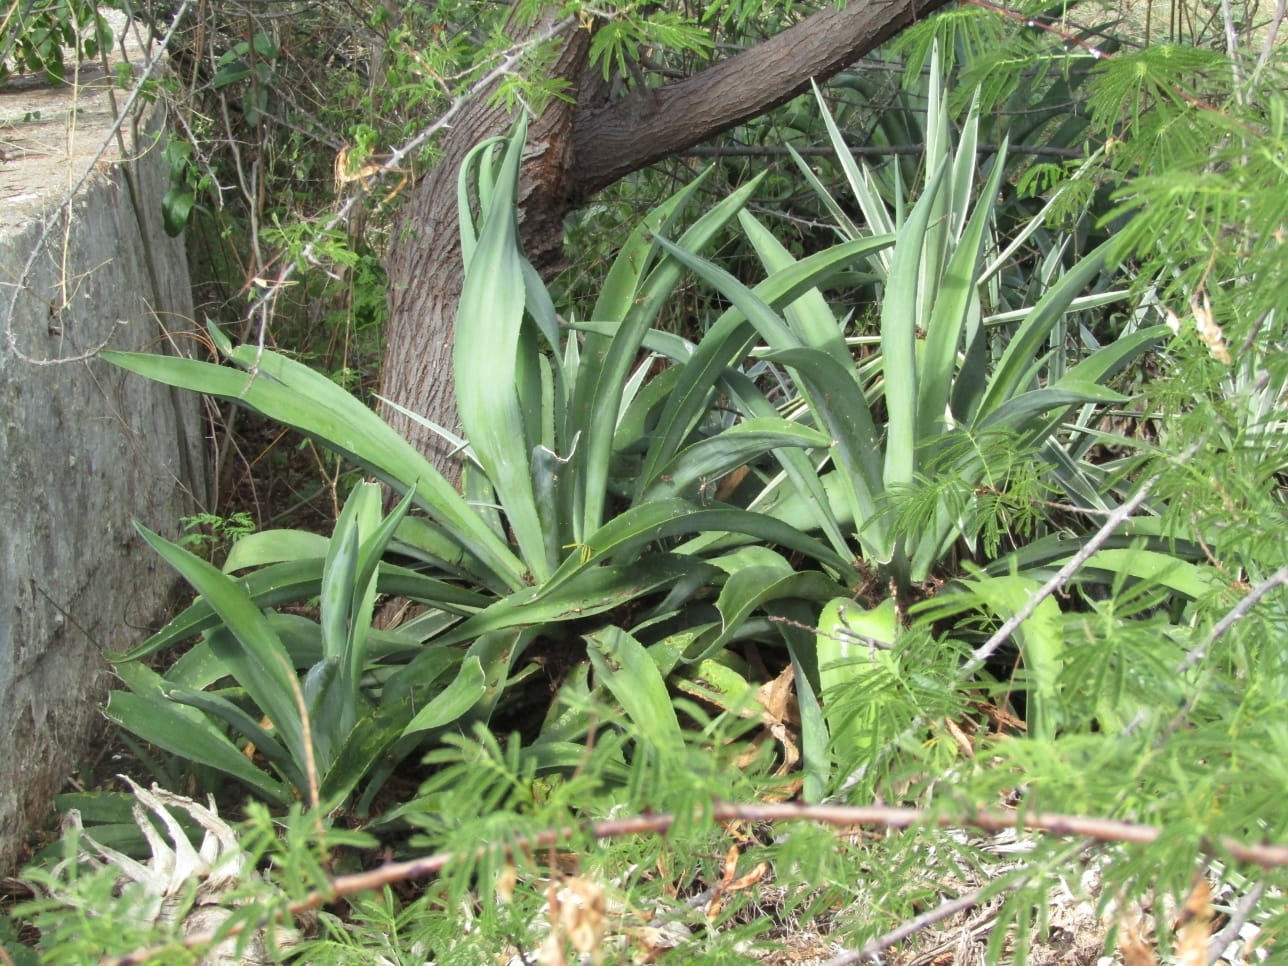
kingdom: Plantae
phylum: Tracheophyta
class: Liliopsida
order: Asparagales
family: Asparagaceae
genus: Agave
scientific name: Agave
